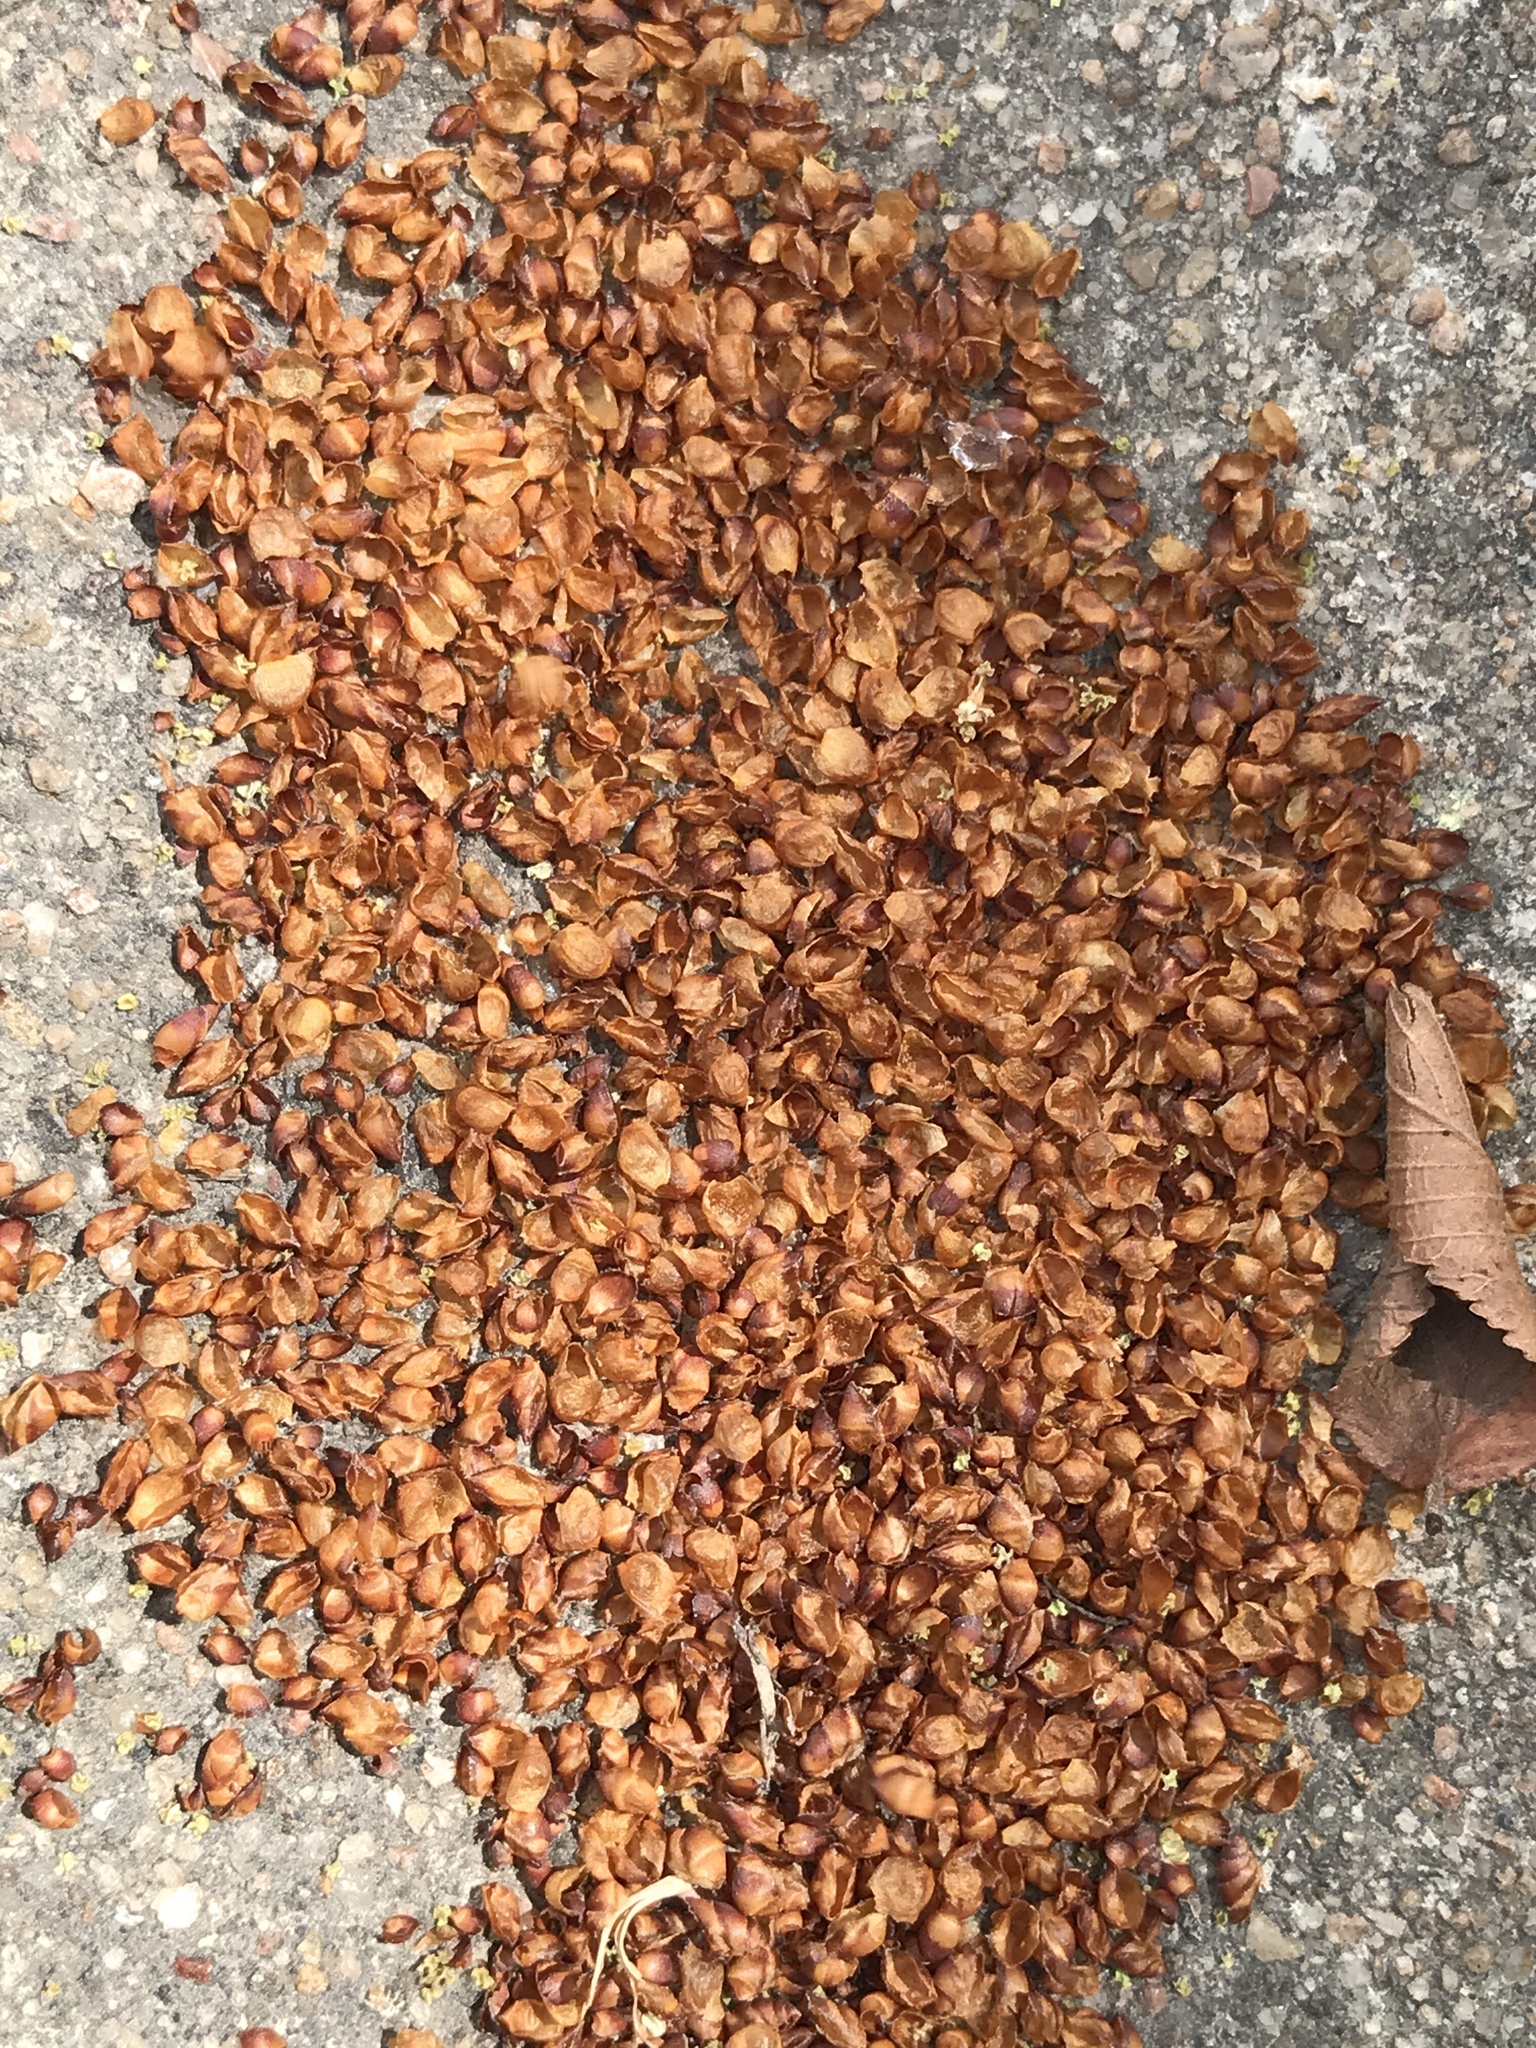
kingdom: Plantae
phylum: Tracheophyta
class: Magnoliopsida
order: Rosales
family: Ulmaceae
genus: Ulmus
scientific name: Ulmus crassifolia
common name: Basket elm
